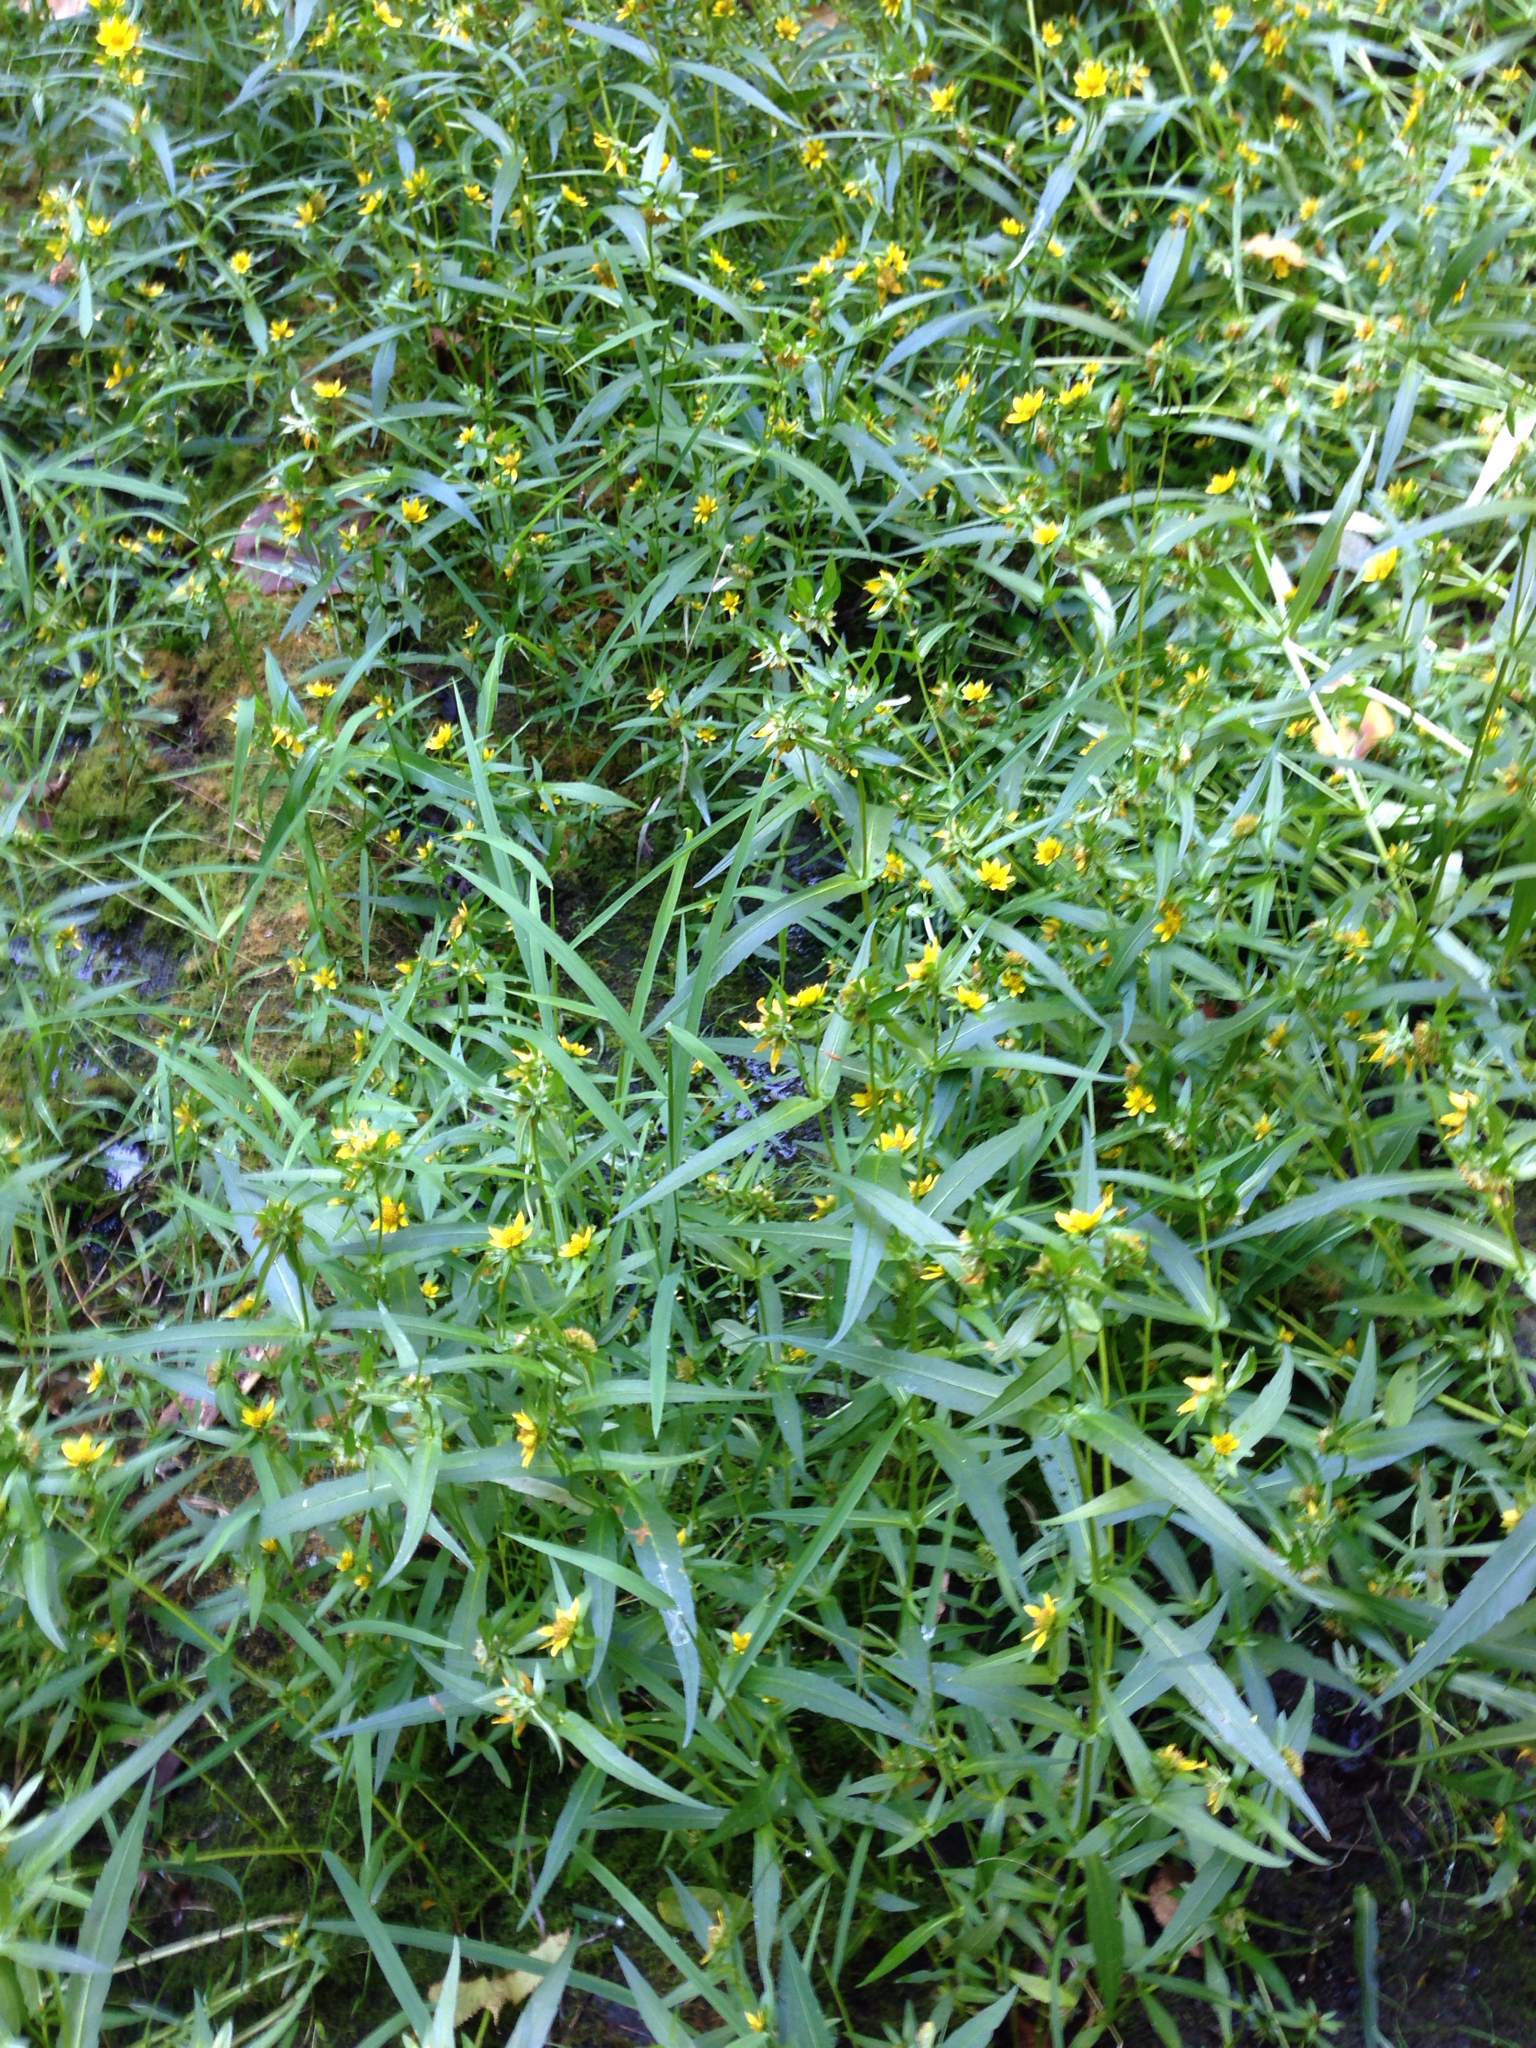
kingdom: Plantae
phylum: Tracheophyta
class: Magnoliopsida
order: Asterales
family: Asteraceae
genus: Bidens
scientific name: Bidens cernua
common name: Nodding bur-marigold
